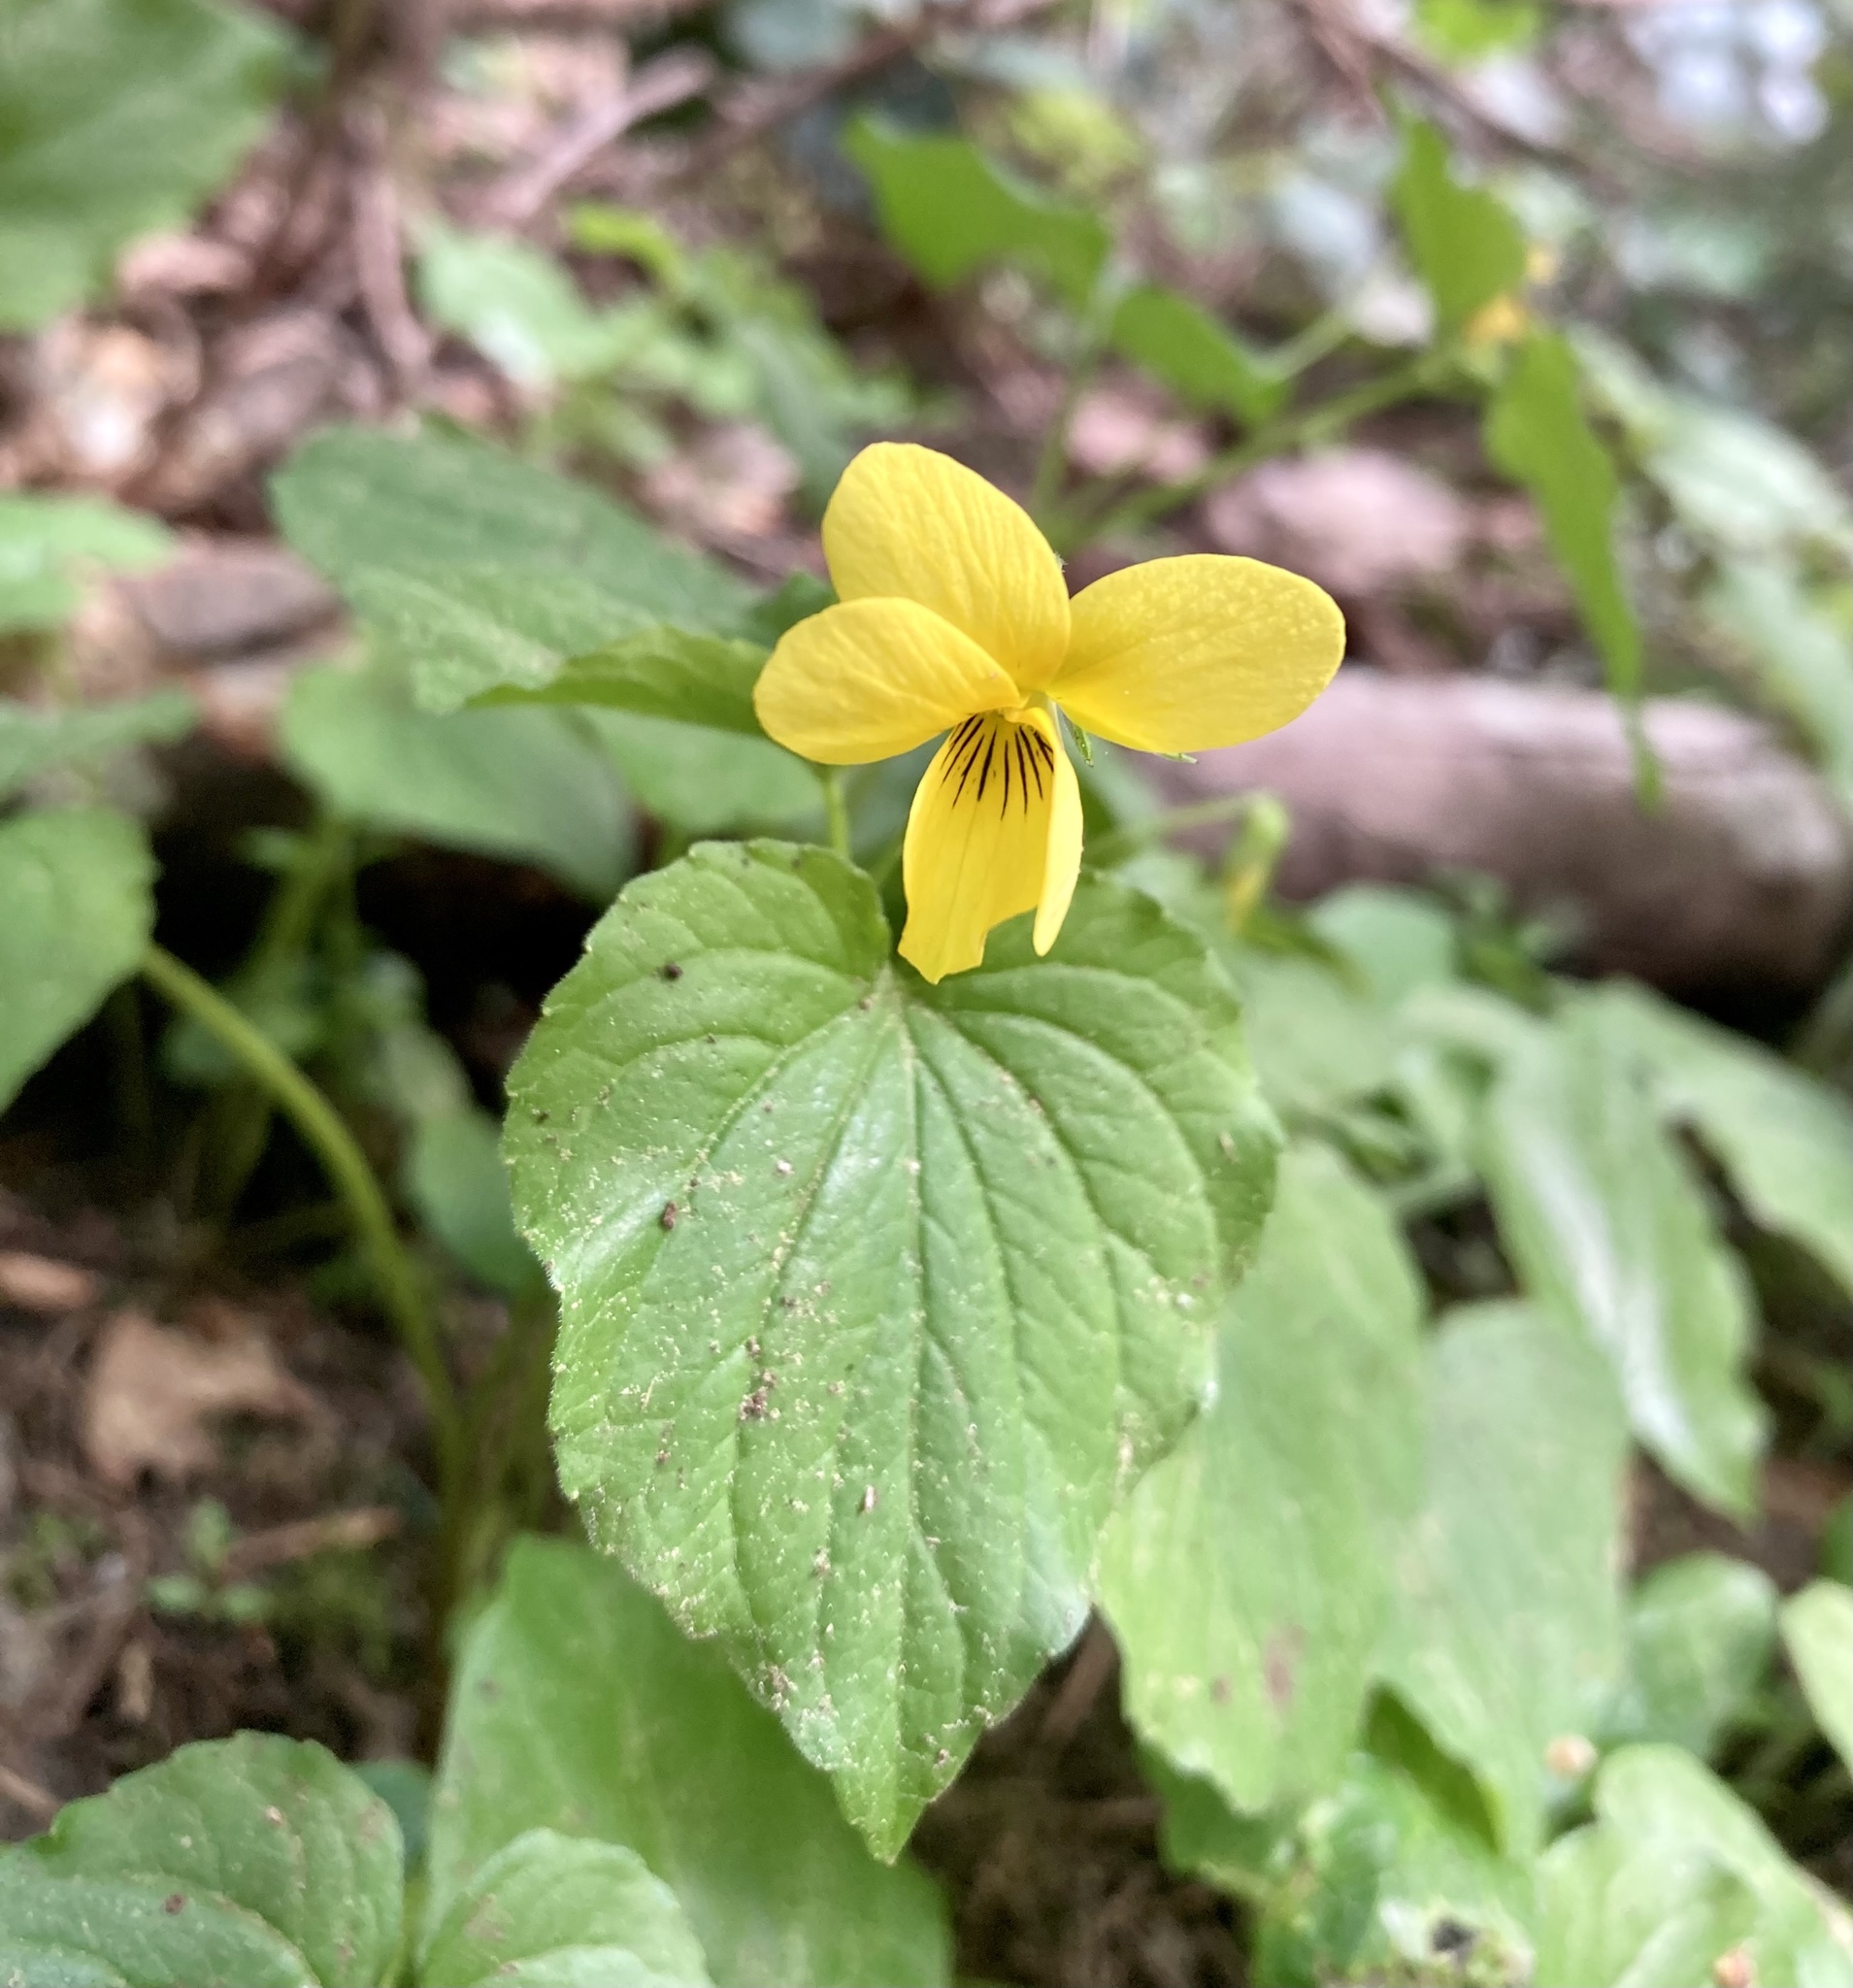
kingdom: Plantae
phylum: Tracheophyta
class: Magnoliopsida
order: Malpighiales
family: Violaceae
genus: Viola
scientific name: Viola glabella
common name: Stream violet
